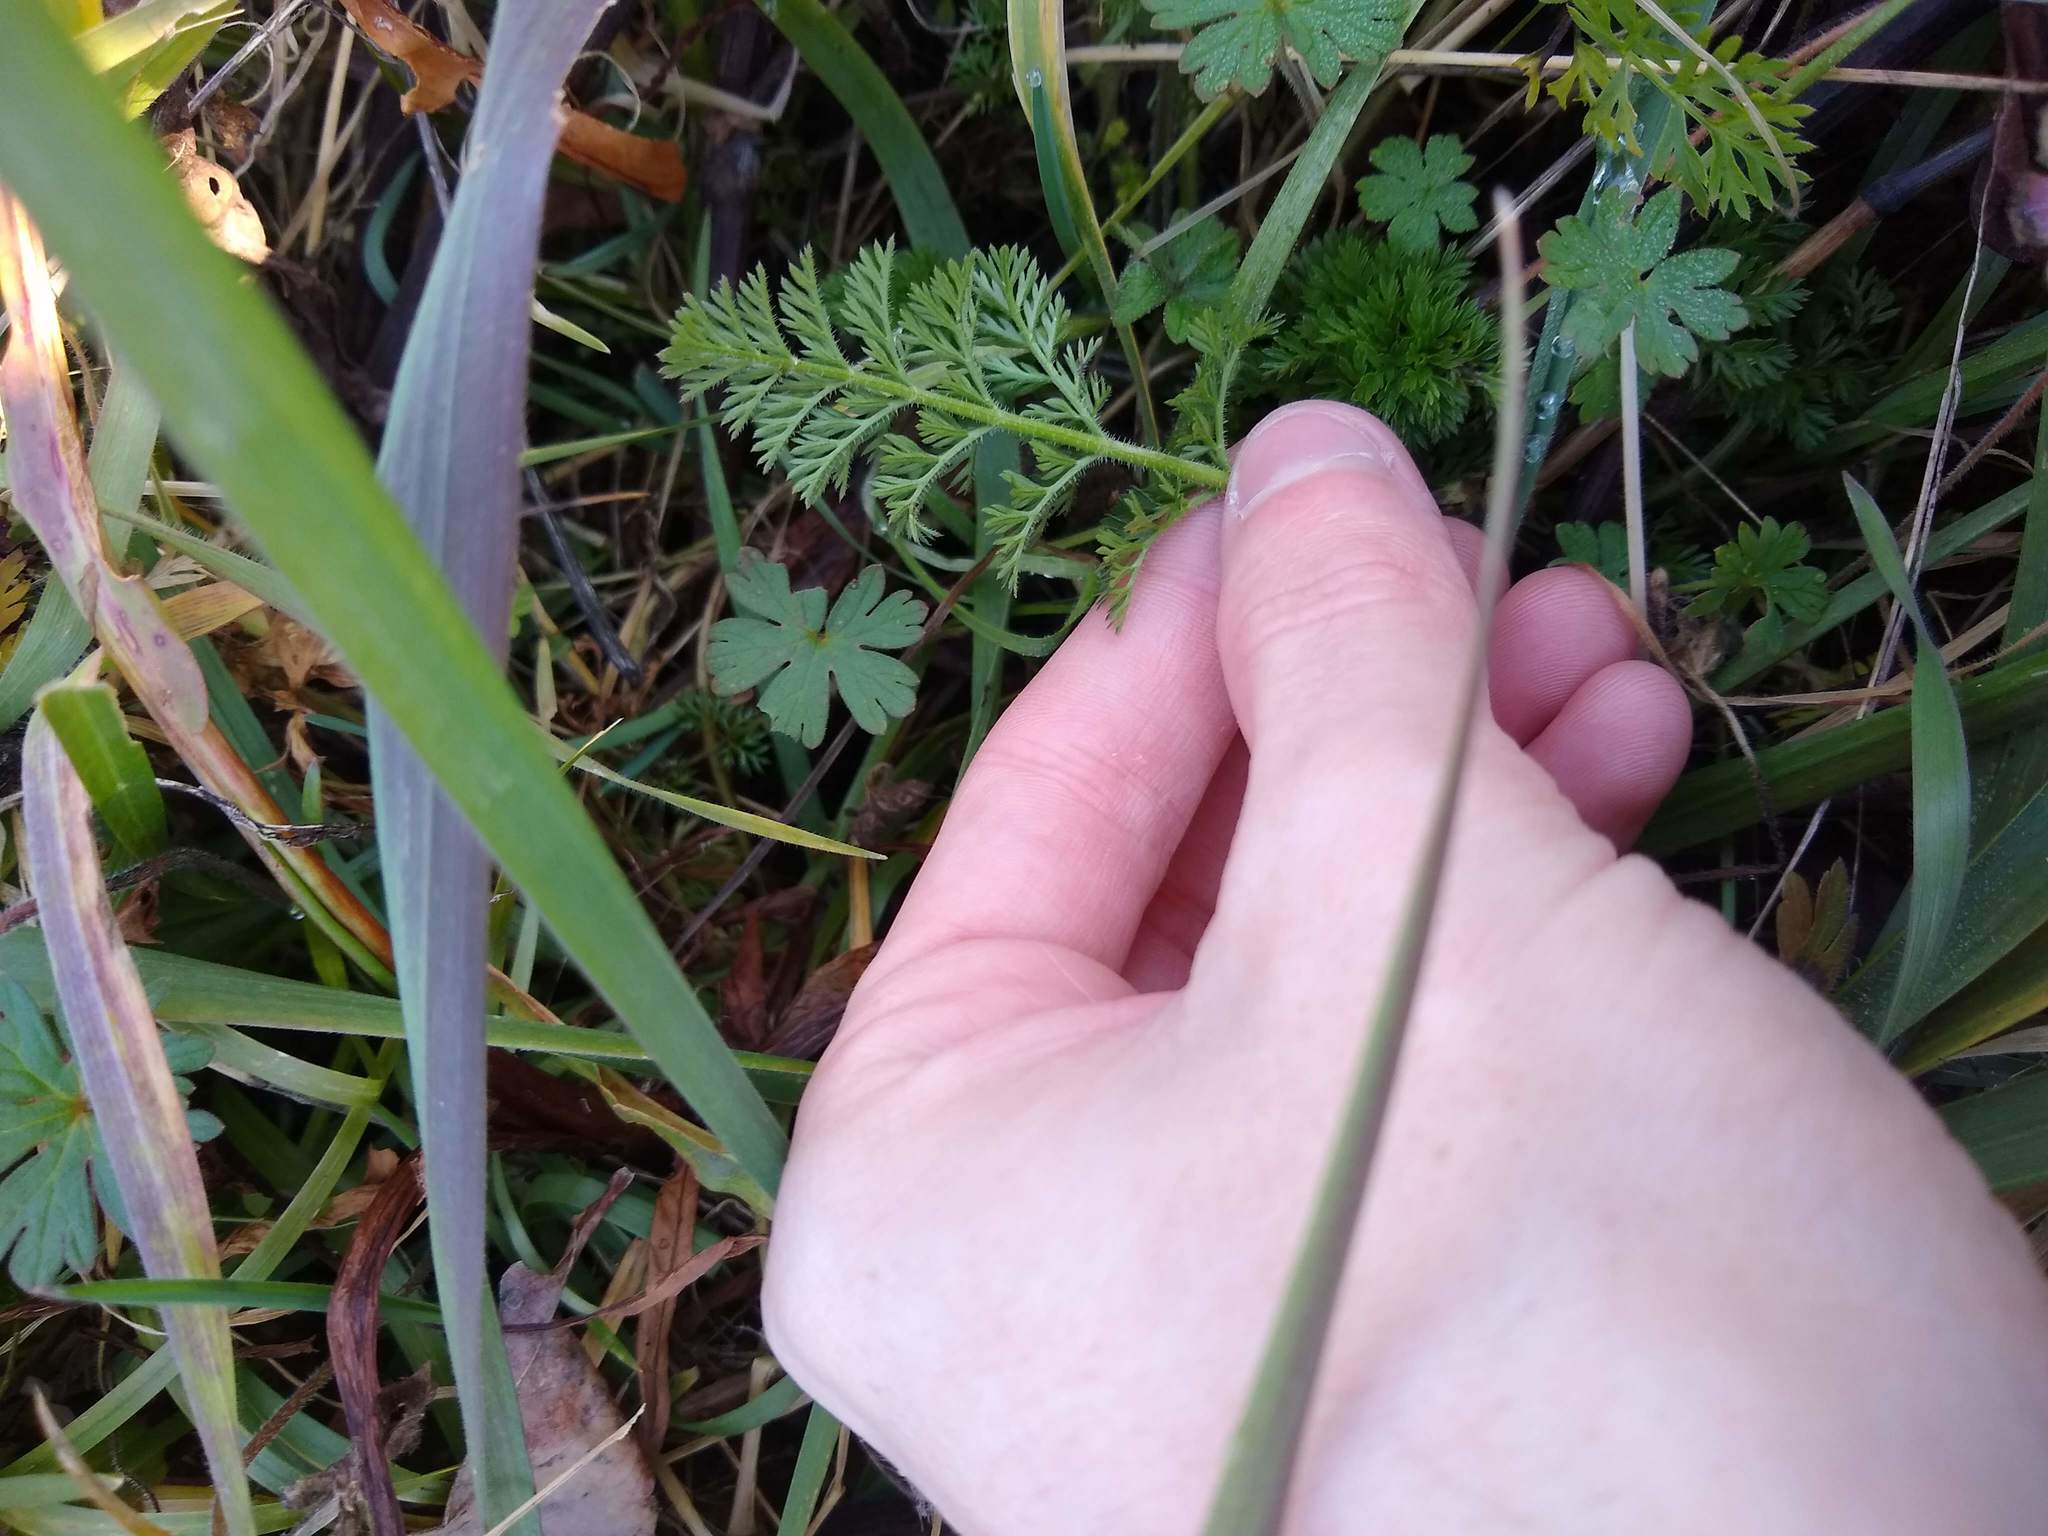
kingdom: Plantae
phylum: Tracheophyta
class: Magnoliopsida
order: Asterales
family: Asteraceae
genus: Achillea
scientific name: Achillea millefolium
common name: Yarrow
